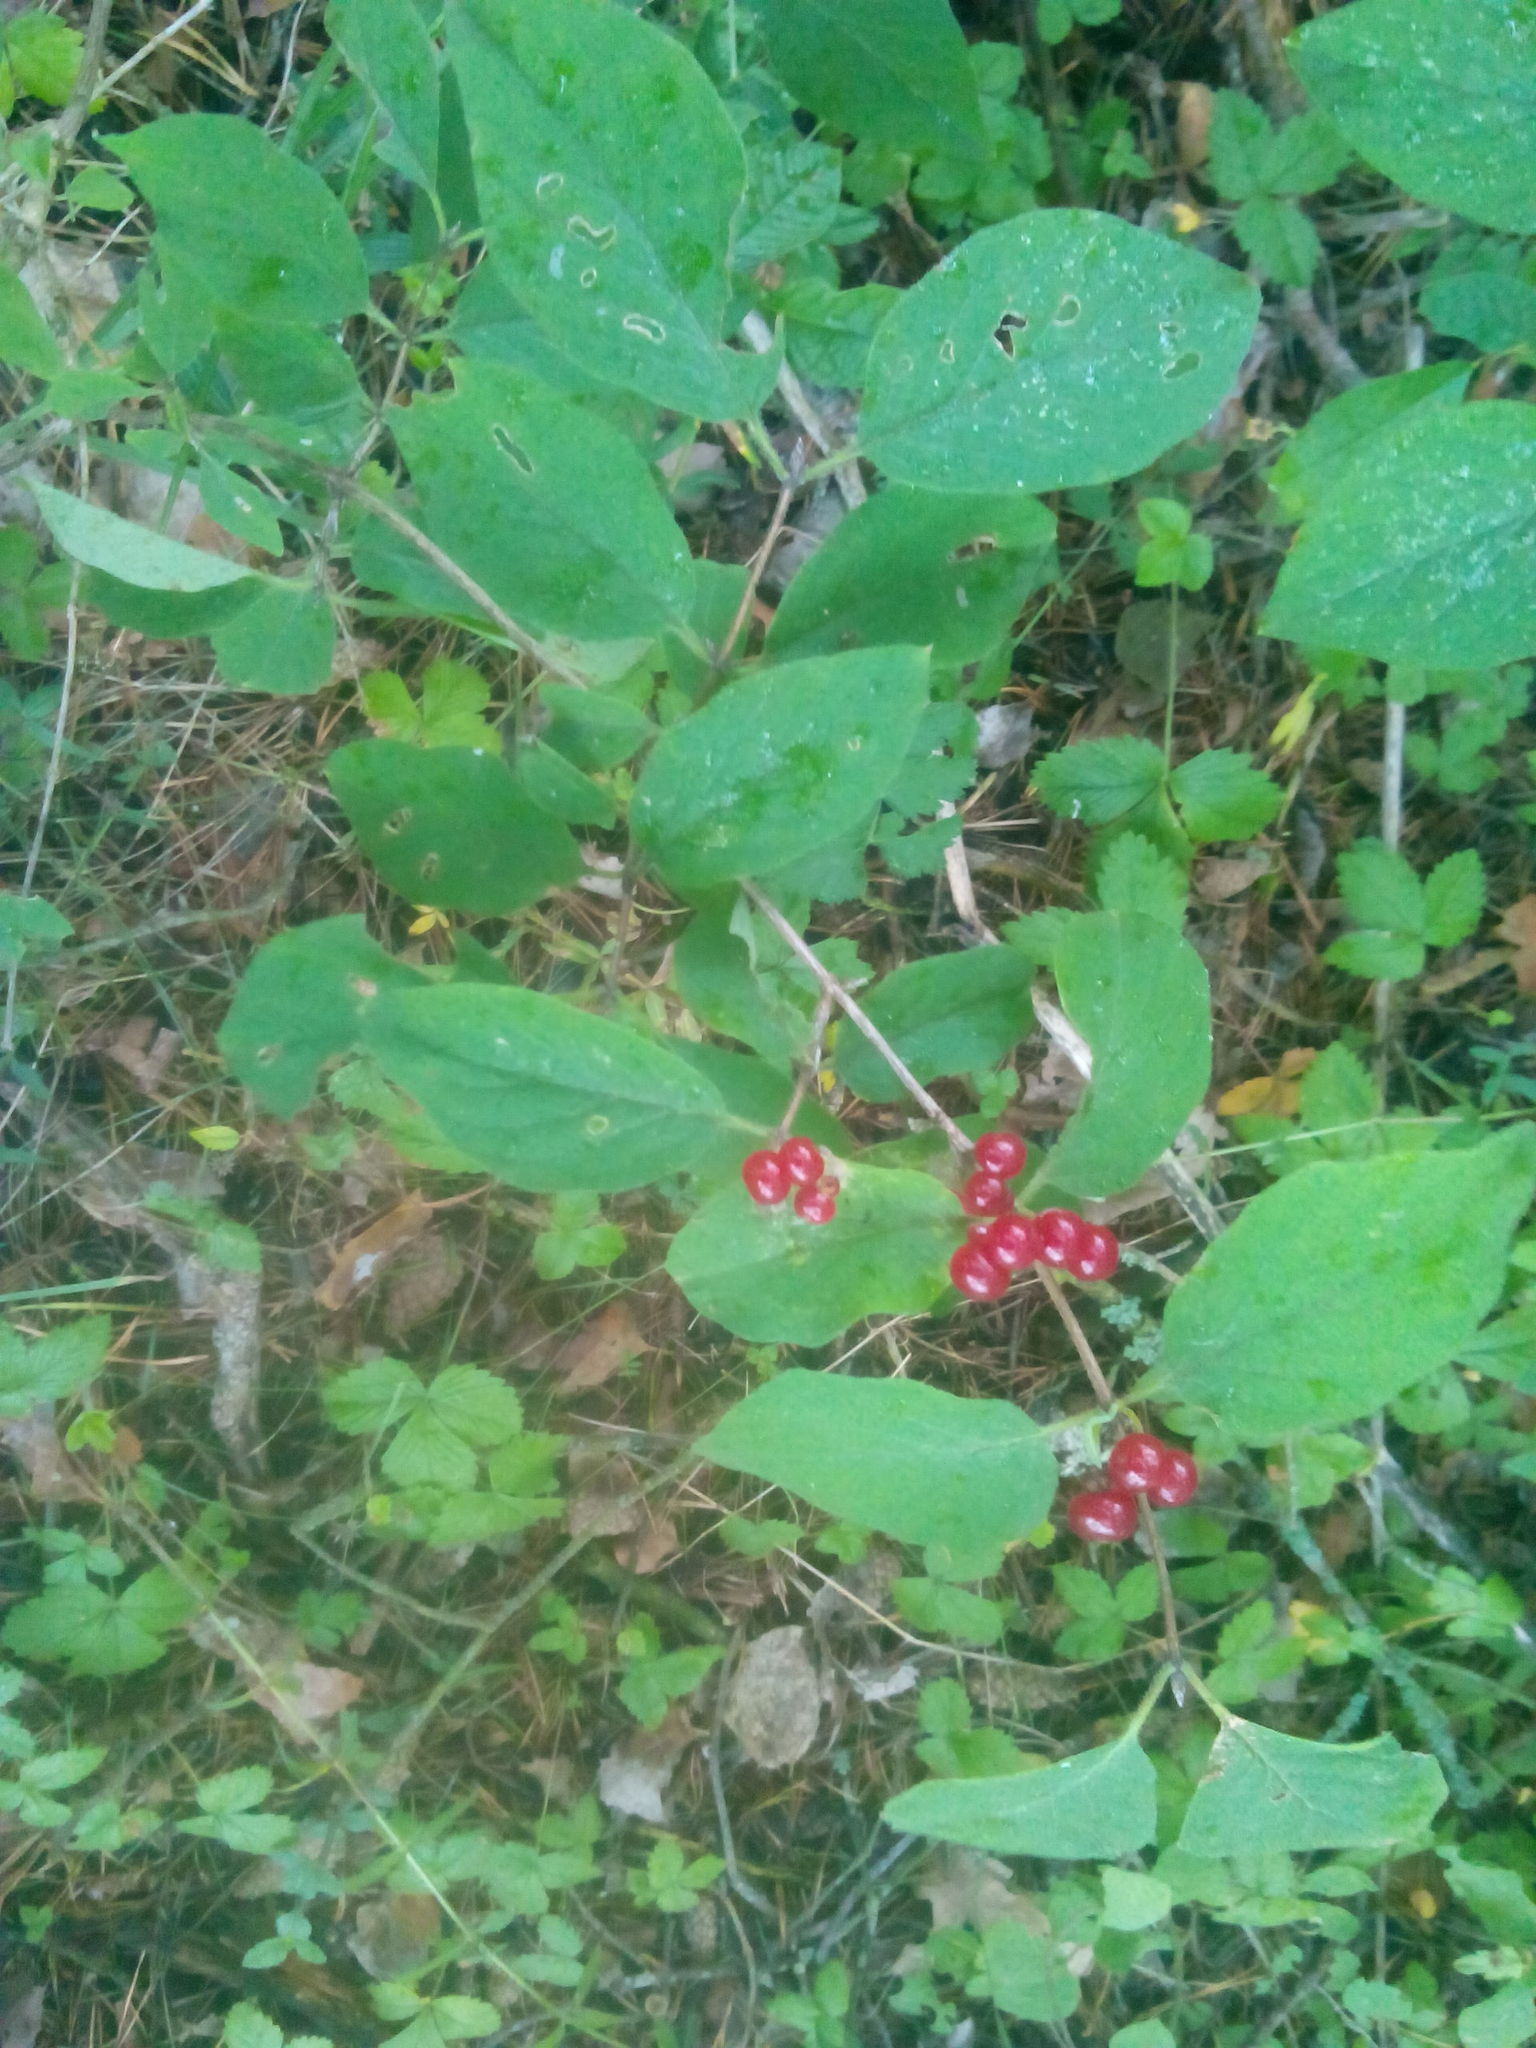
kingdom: Plantae
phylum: Tracheophyta
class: Magnoliopsida
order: Dipsacales
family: Caprifoliaceae
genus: Lonicera
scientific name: Lonicera xylosteum
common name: Fly honeysuckle
